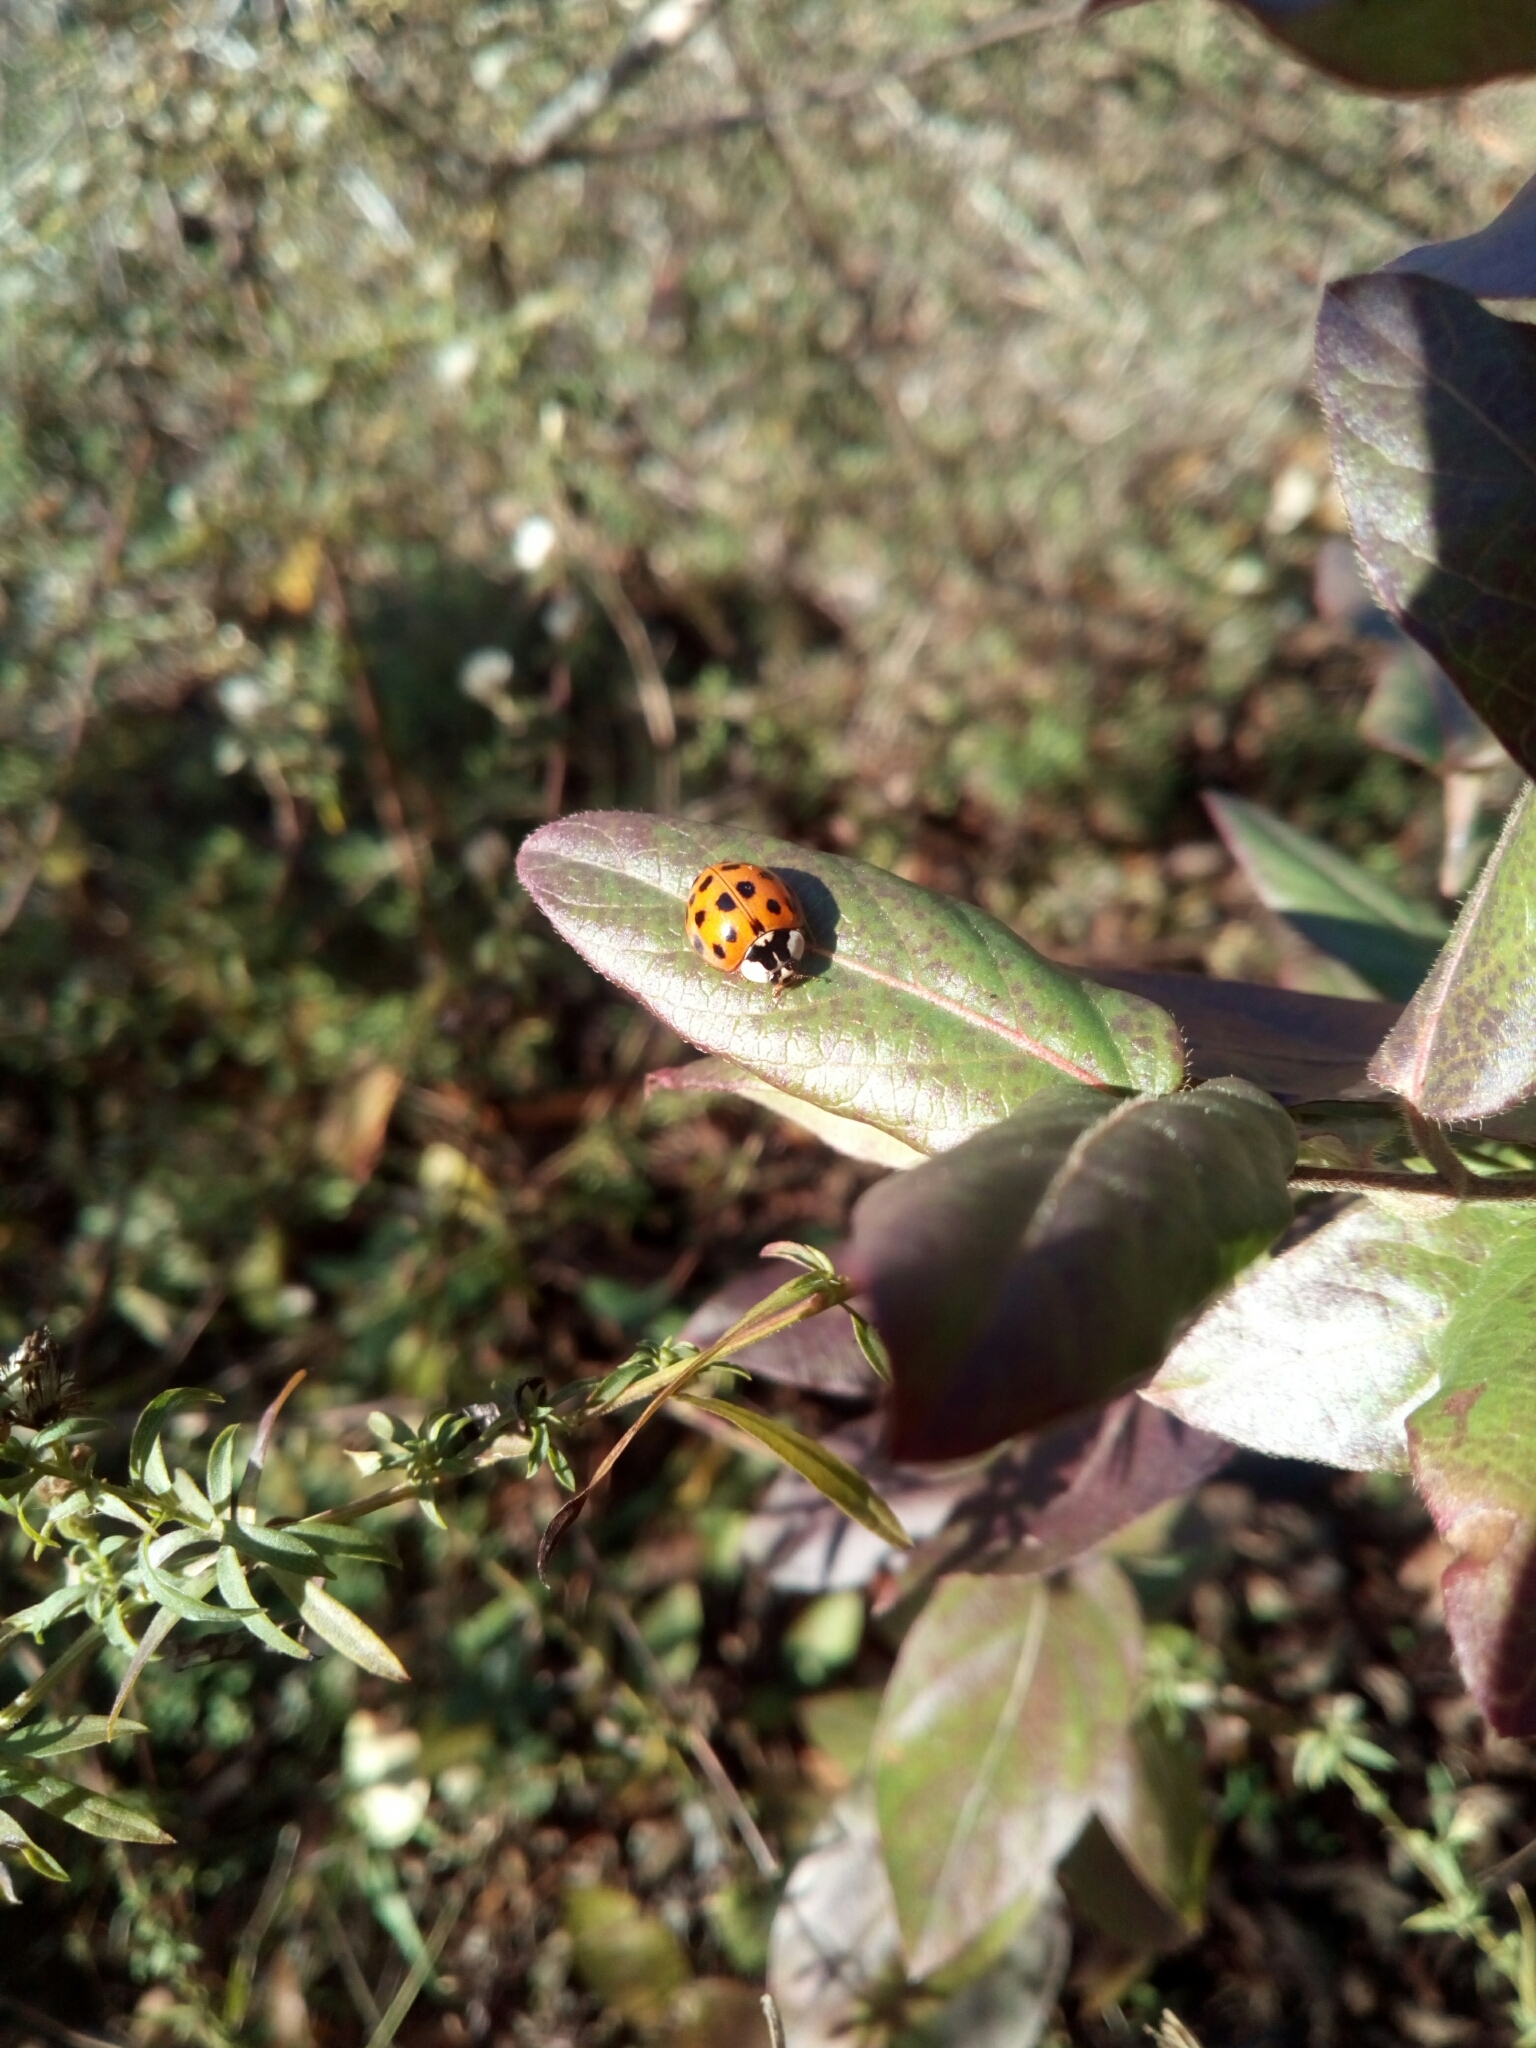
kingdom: Animalia
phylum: Arthropoda
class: Insecta
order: Coleoptera
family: Coccinellidae
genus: Harmonia
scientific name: Harmonia axyridis
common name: Harlequin ladybird
